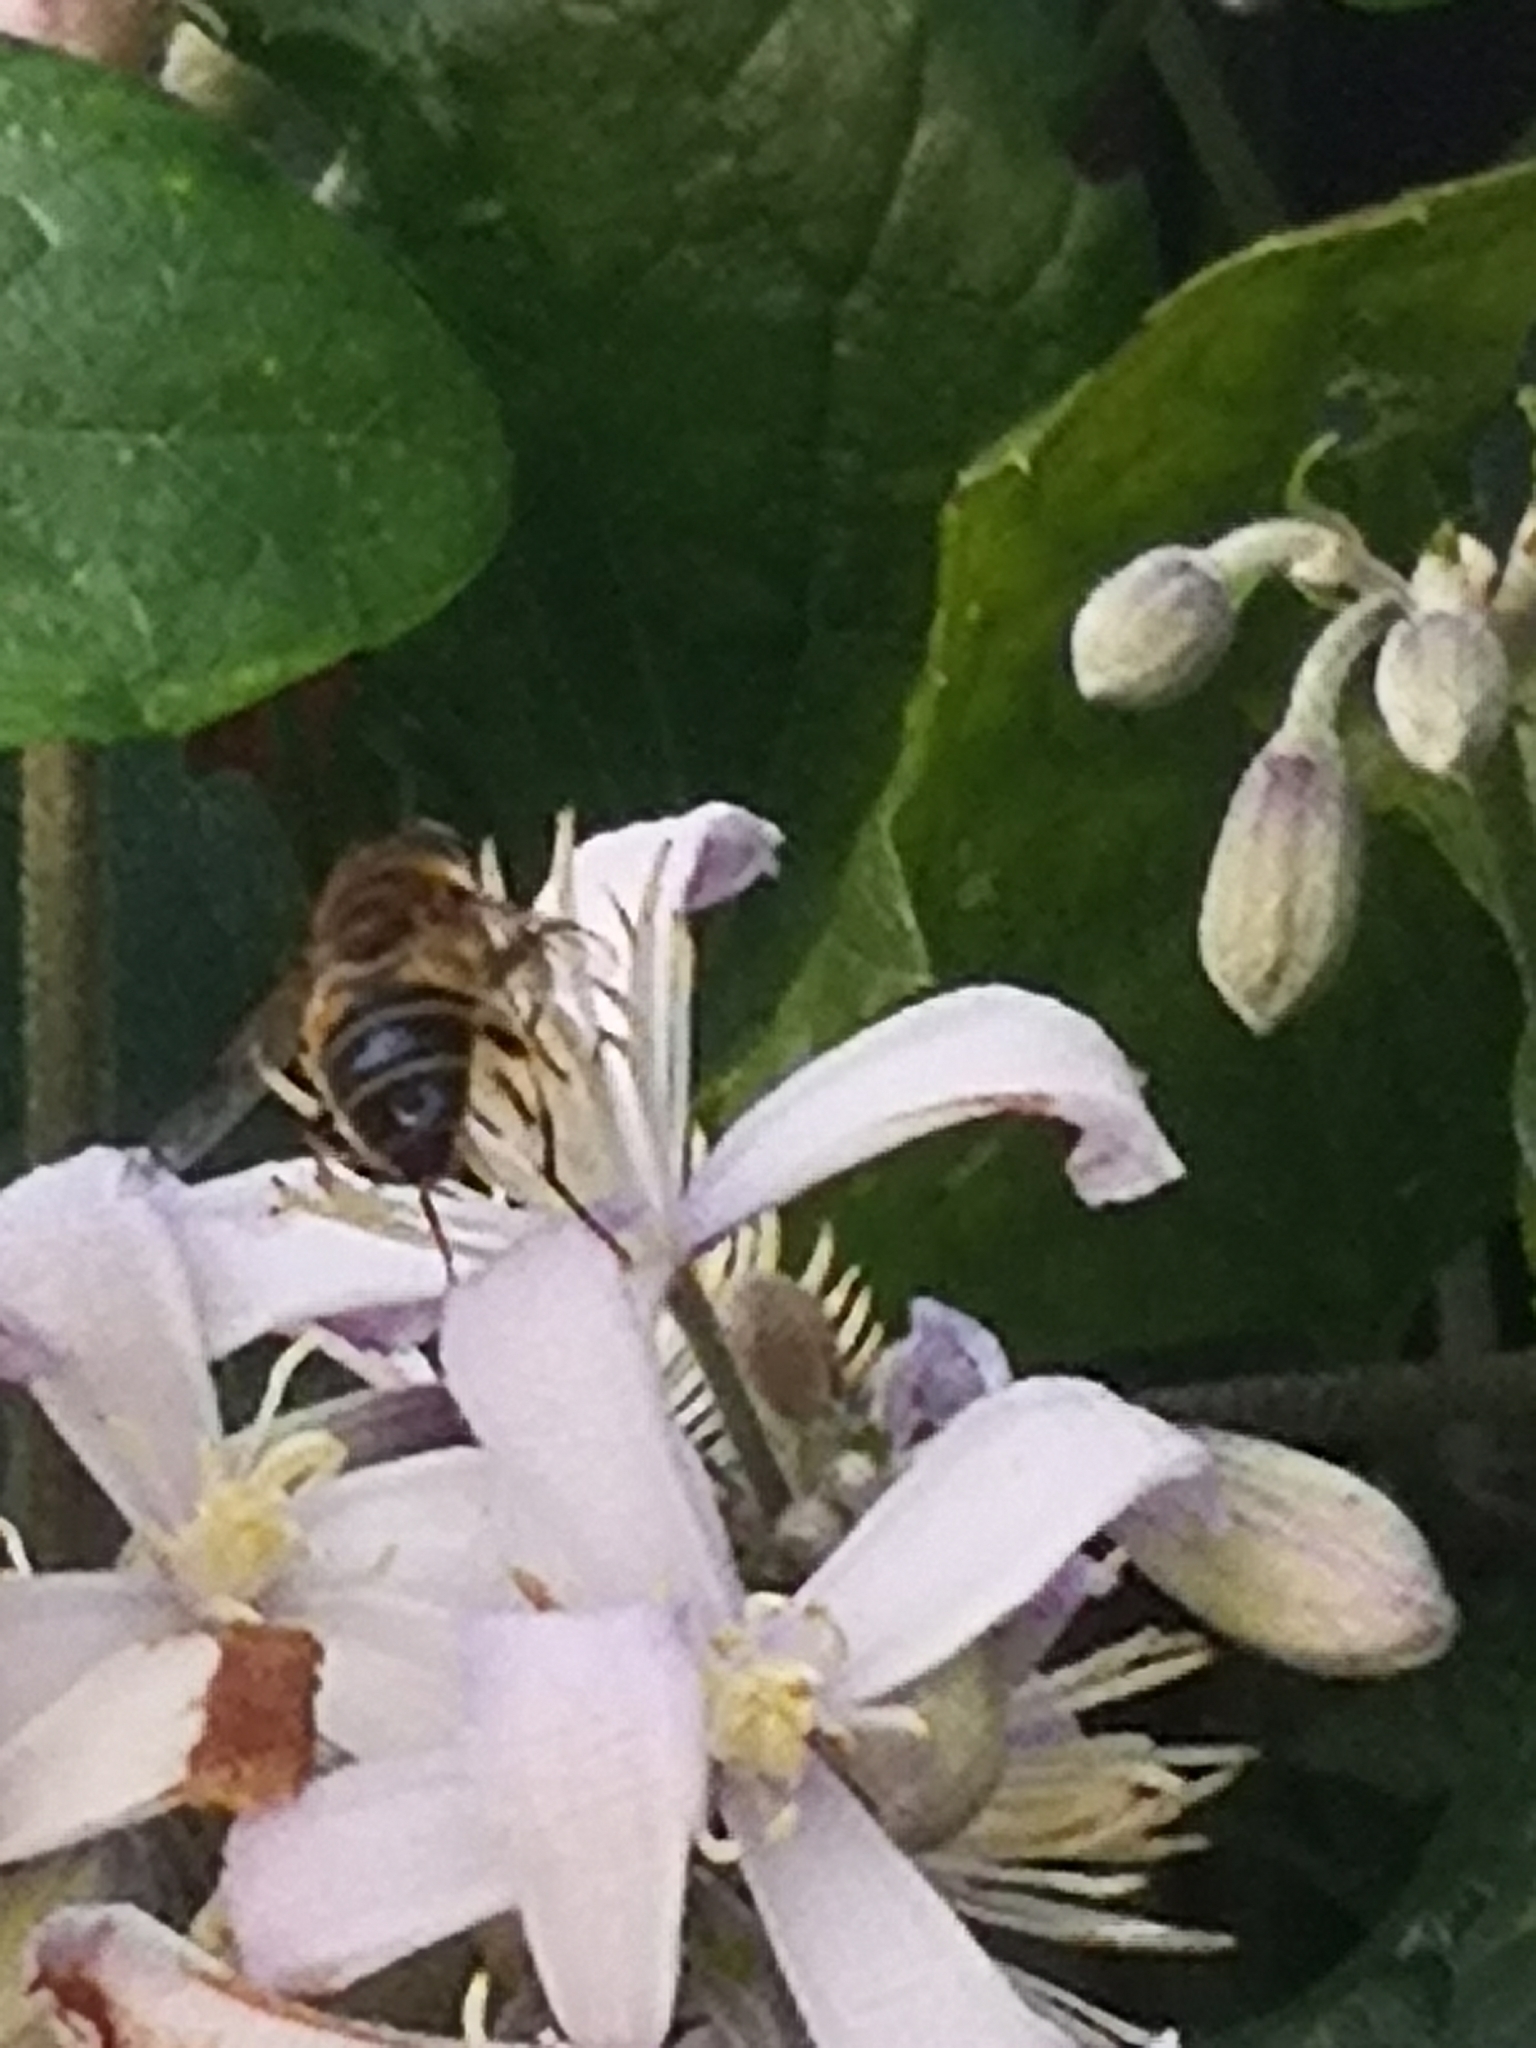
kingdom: Animalia
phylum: Arthropoda
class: Insecta
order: Diptera
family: Syrphidae
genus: Eristalis
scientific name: Eristalis
